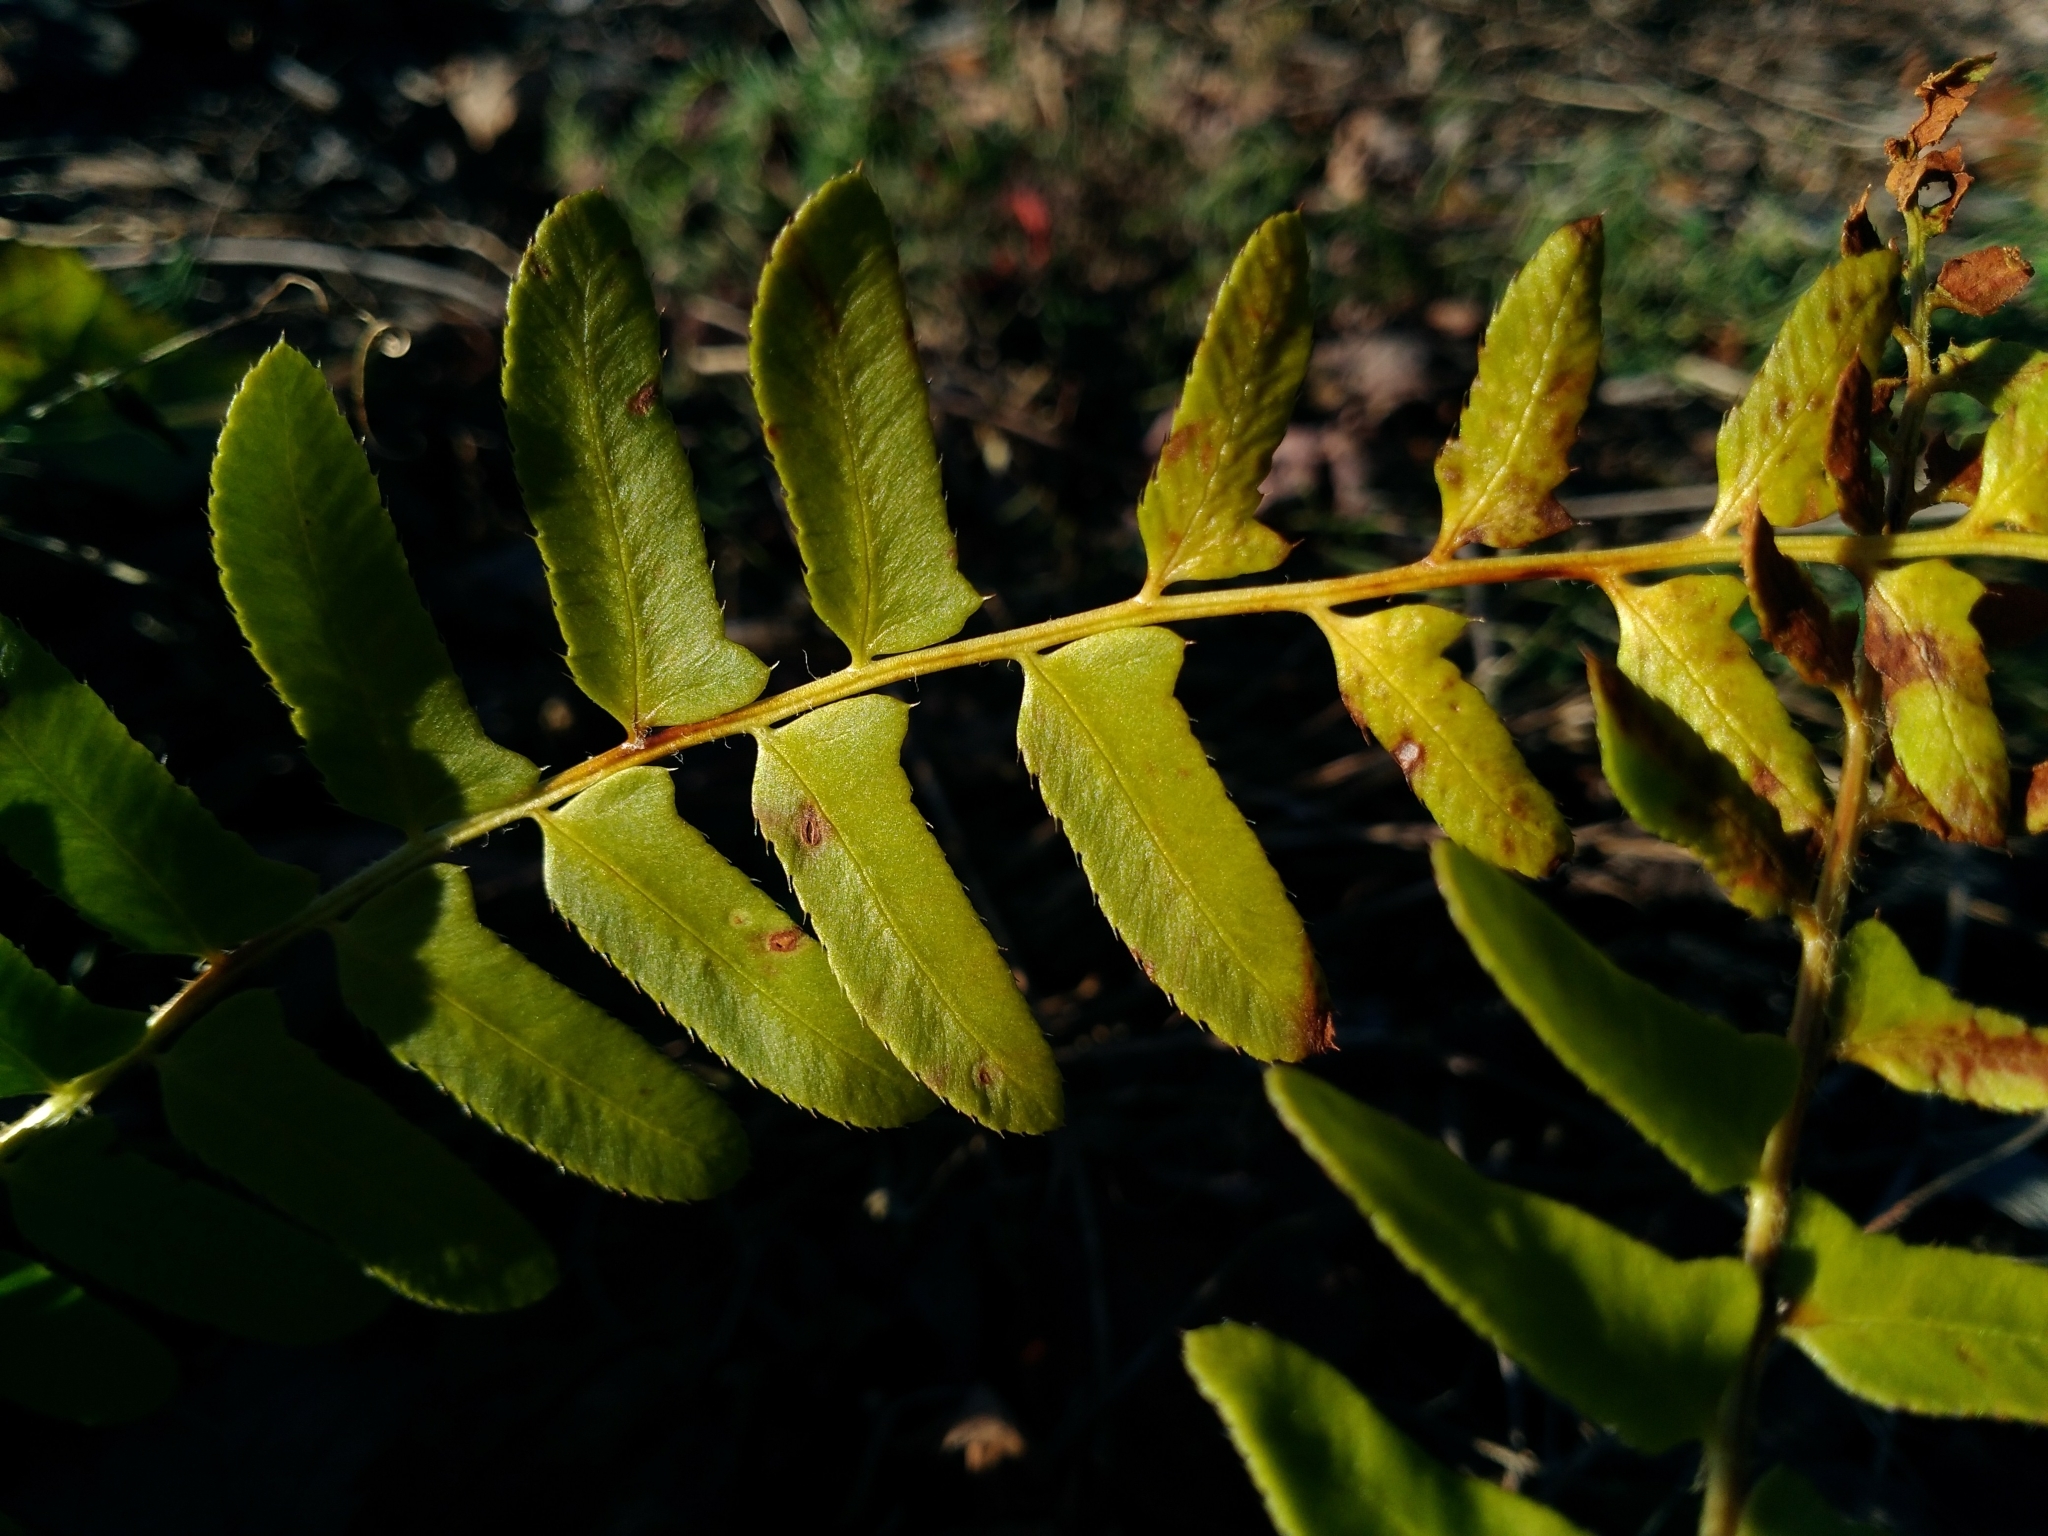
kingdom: Plantae
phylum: Tracheophyta
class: Polypodiopsida
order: Polypodiales
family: Dryopteridaceae
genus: Polystichum
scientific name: Polystichum acrostichoides
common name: Christmas fern
